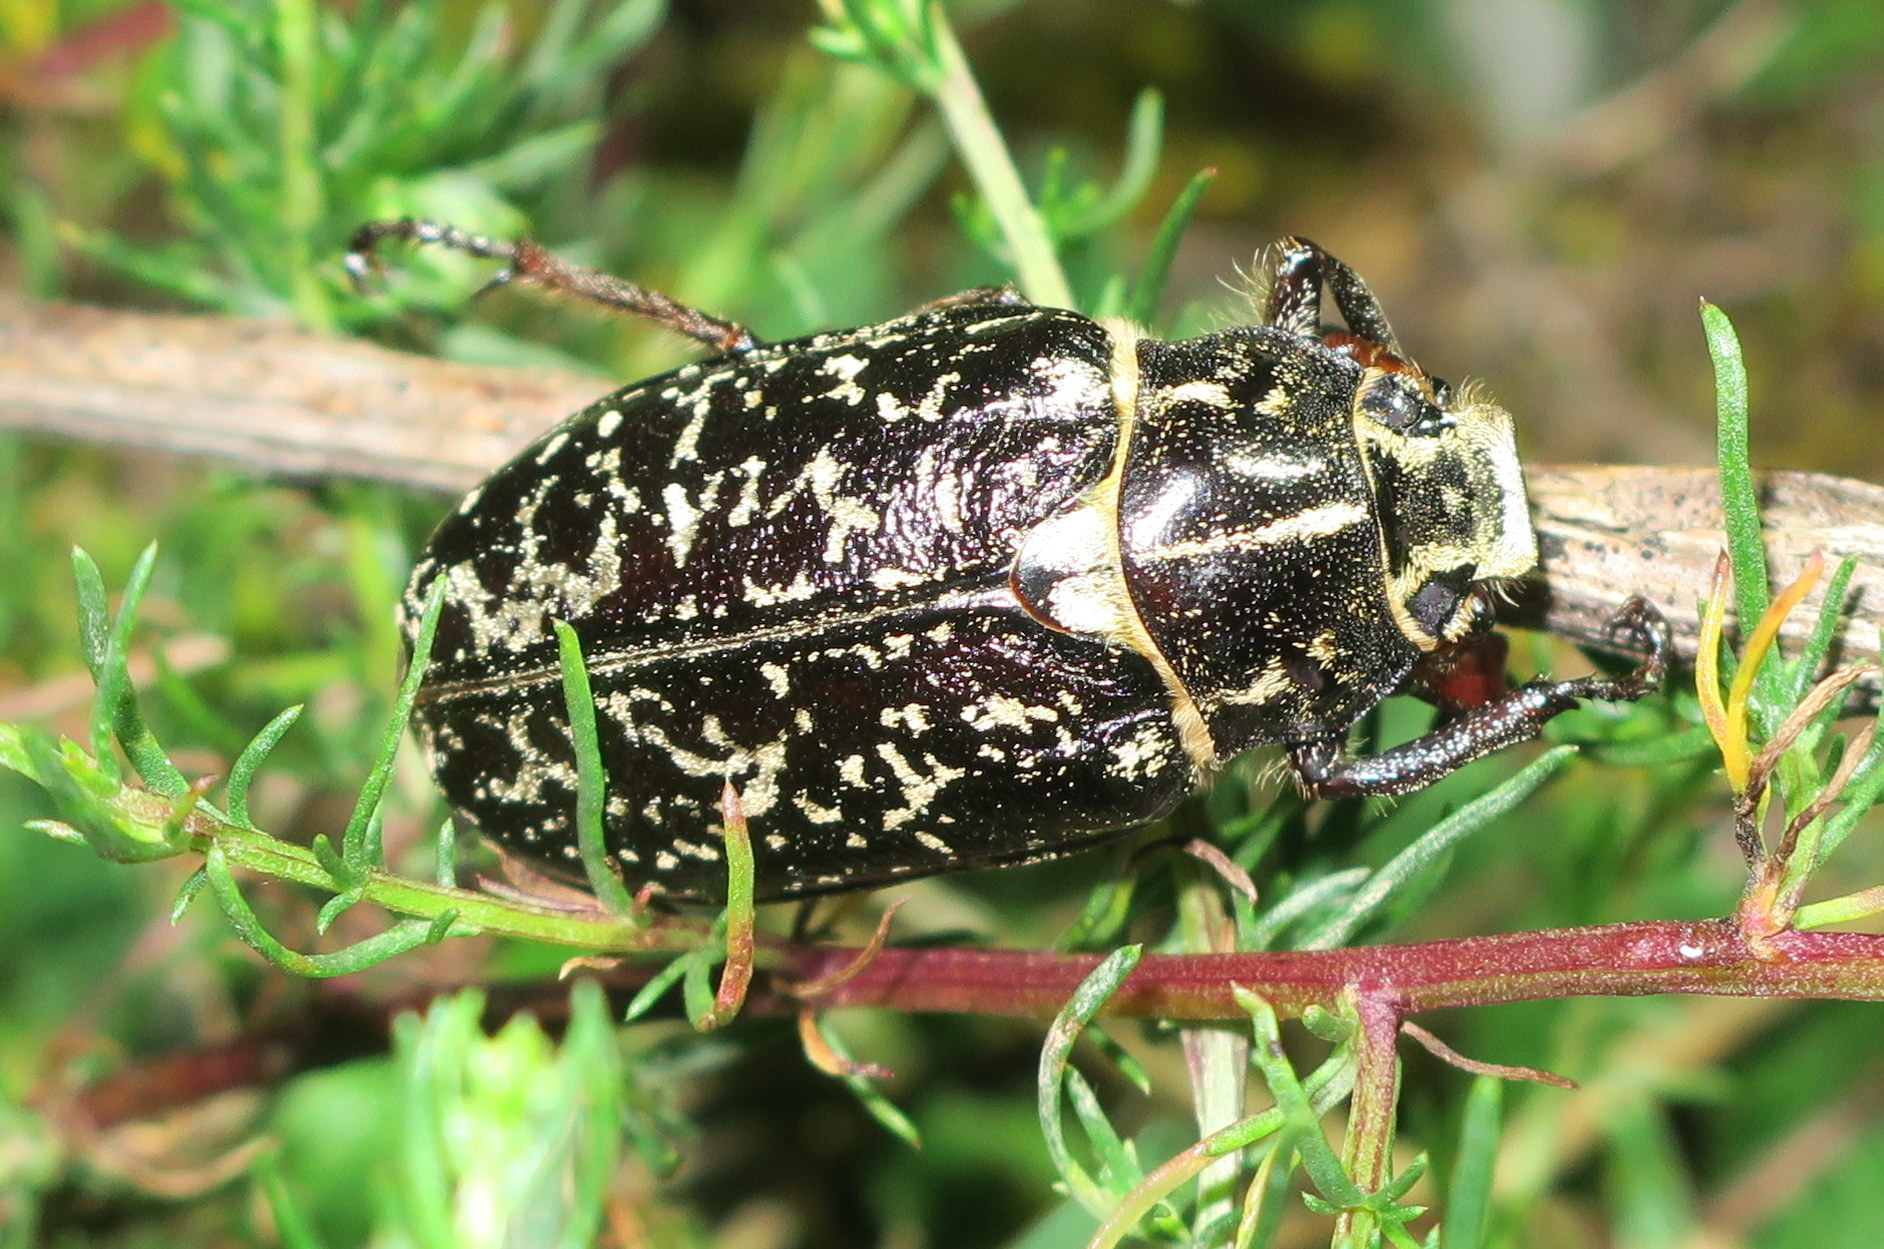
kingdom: Animalia
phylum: Arthropoda
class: Insecta
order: Coleoptera
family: Scarabaeidae
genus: Polyphylla
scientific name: Polyphylla fullo
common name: Pine chafer
